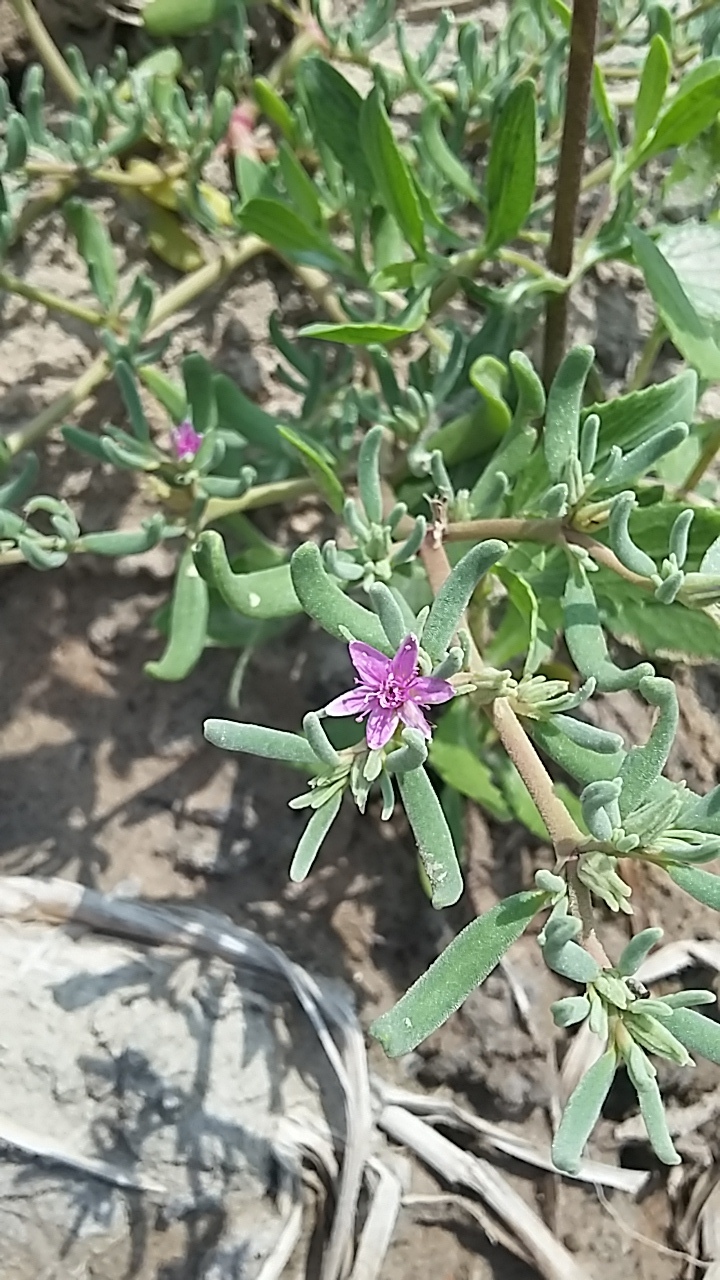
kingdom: Plantae
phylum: Tracheophyta
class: Magnoliopsida
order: Caryophyllales
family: Aizoaceae
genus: Sesuvium
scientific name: Sesuvium revolutifolium
